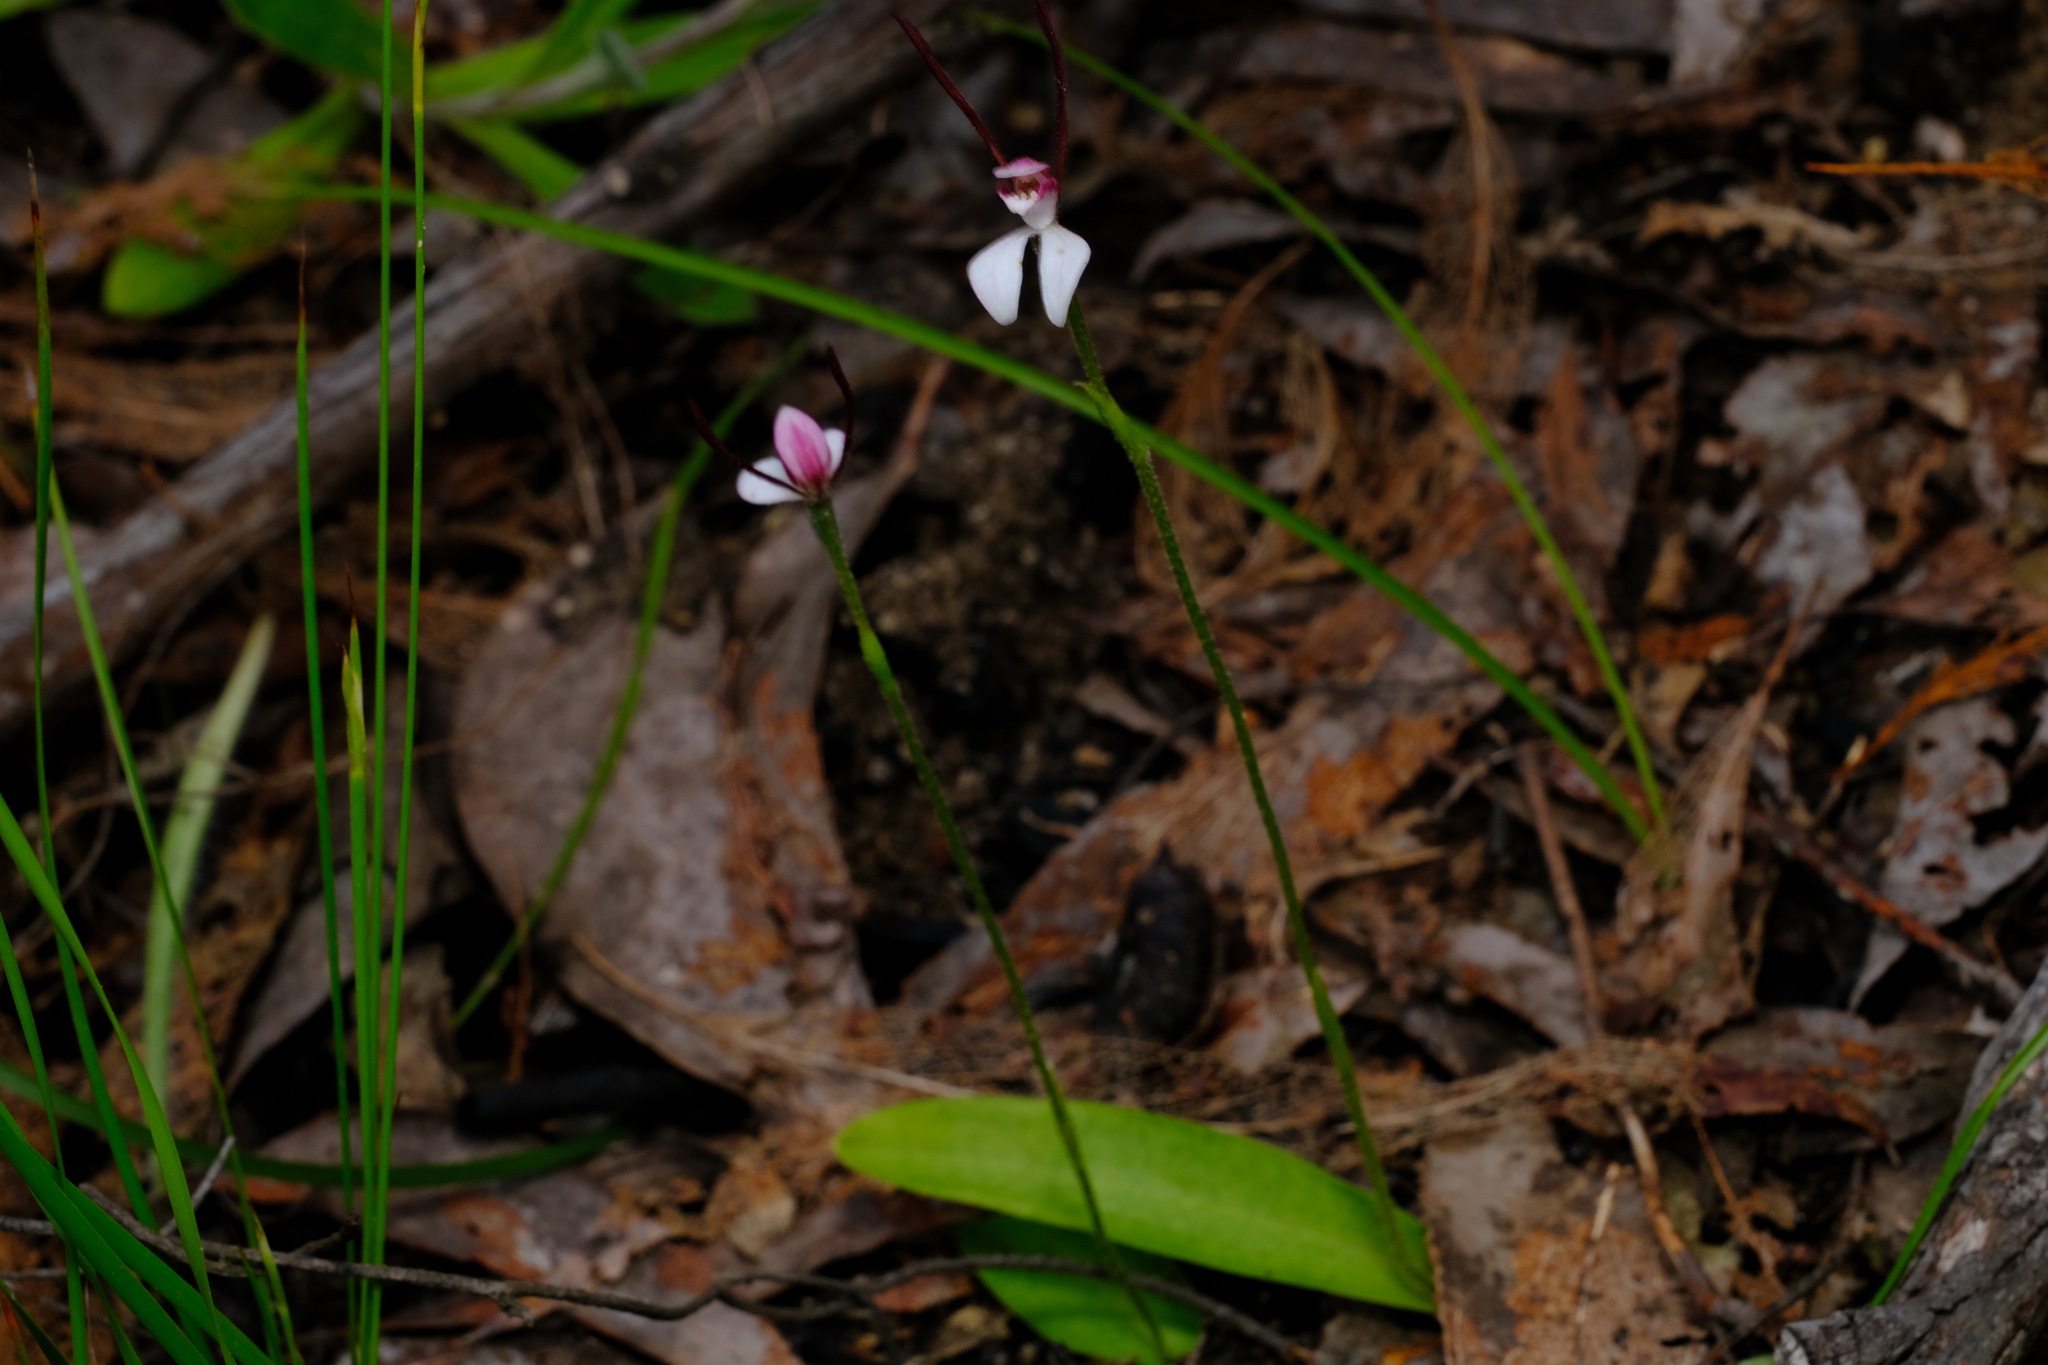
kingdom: Plantae
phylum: Tracheophyta
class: Liliopsida
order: Asparagales
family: Orchidaceae
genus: Leptoceras
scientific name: Leptoceras menziesii
